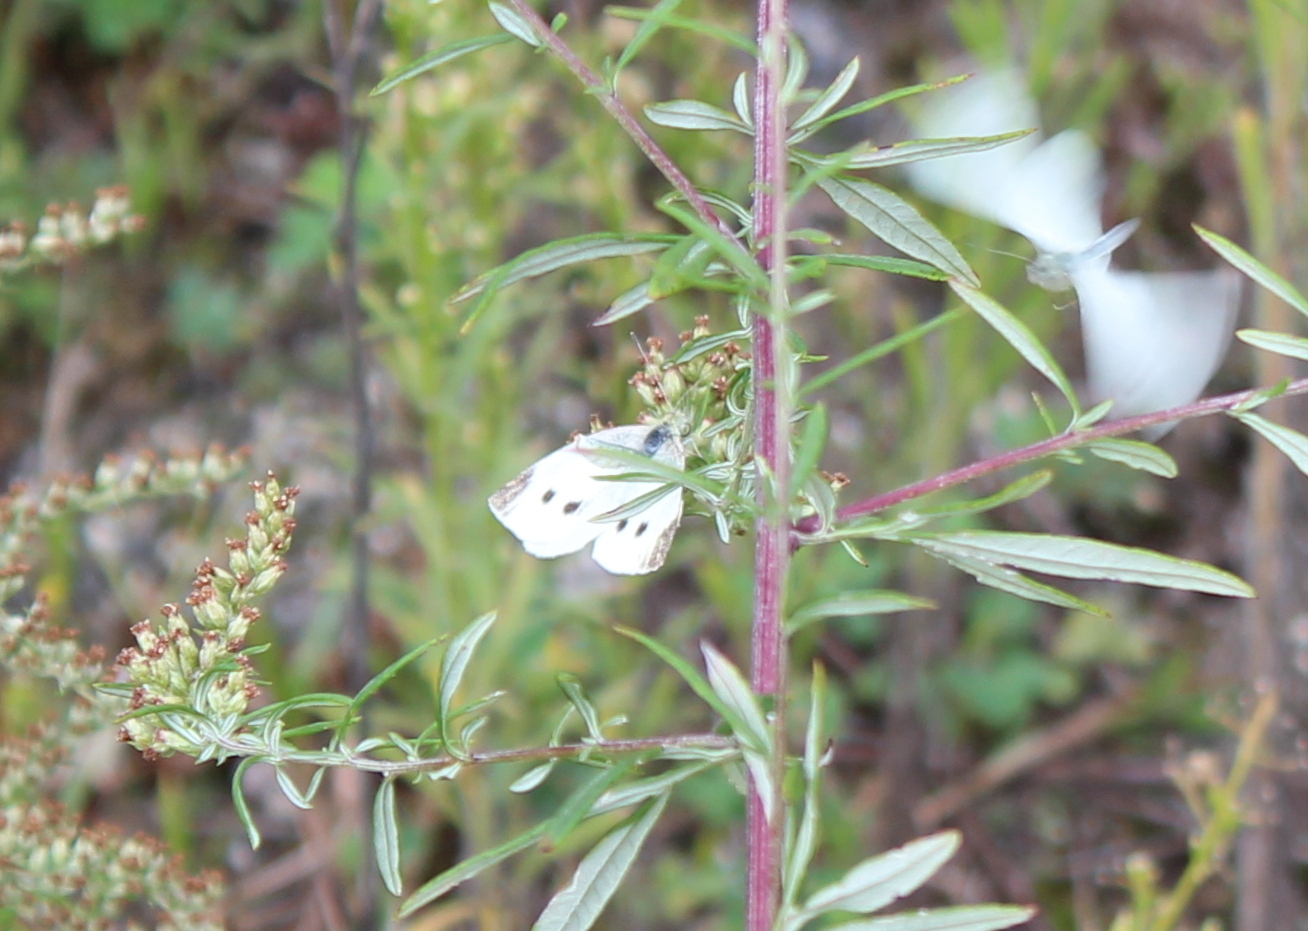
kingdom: Animalia
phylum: Arthropoda
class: Insecta
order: Lepidoptera
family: Pieridae
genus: Pieris
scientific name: Pieris rapae
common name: Small white
